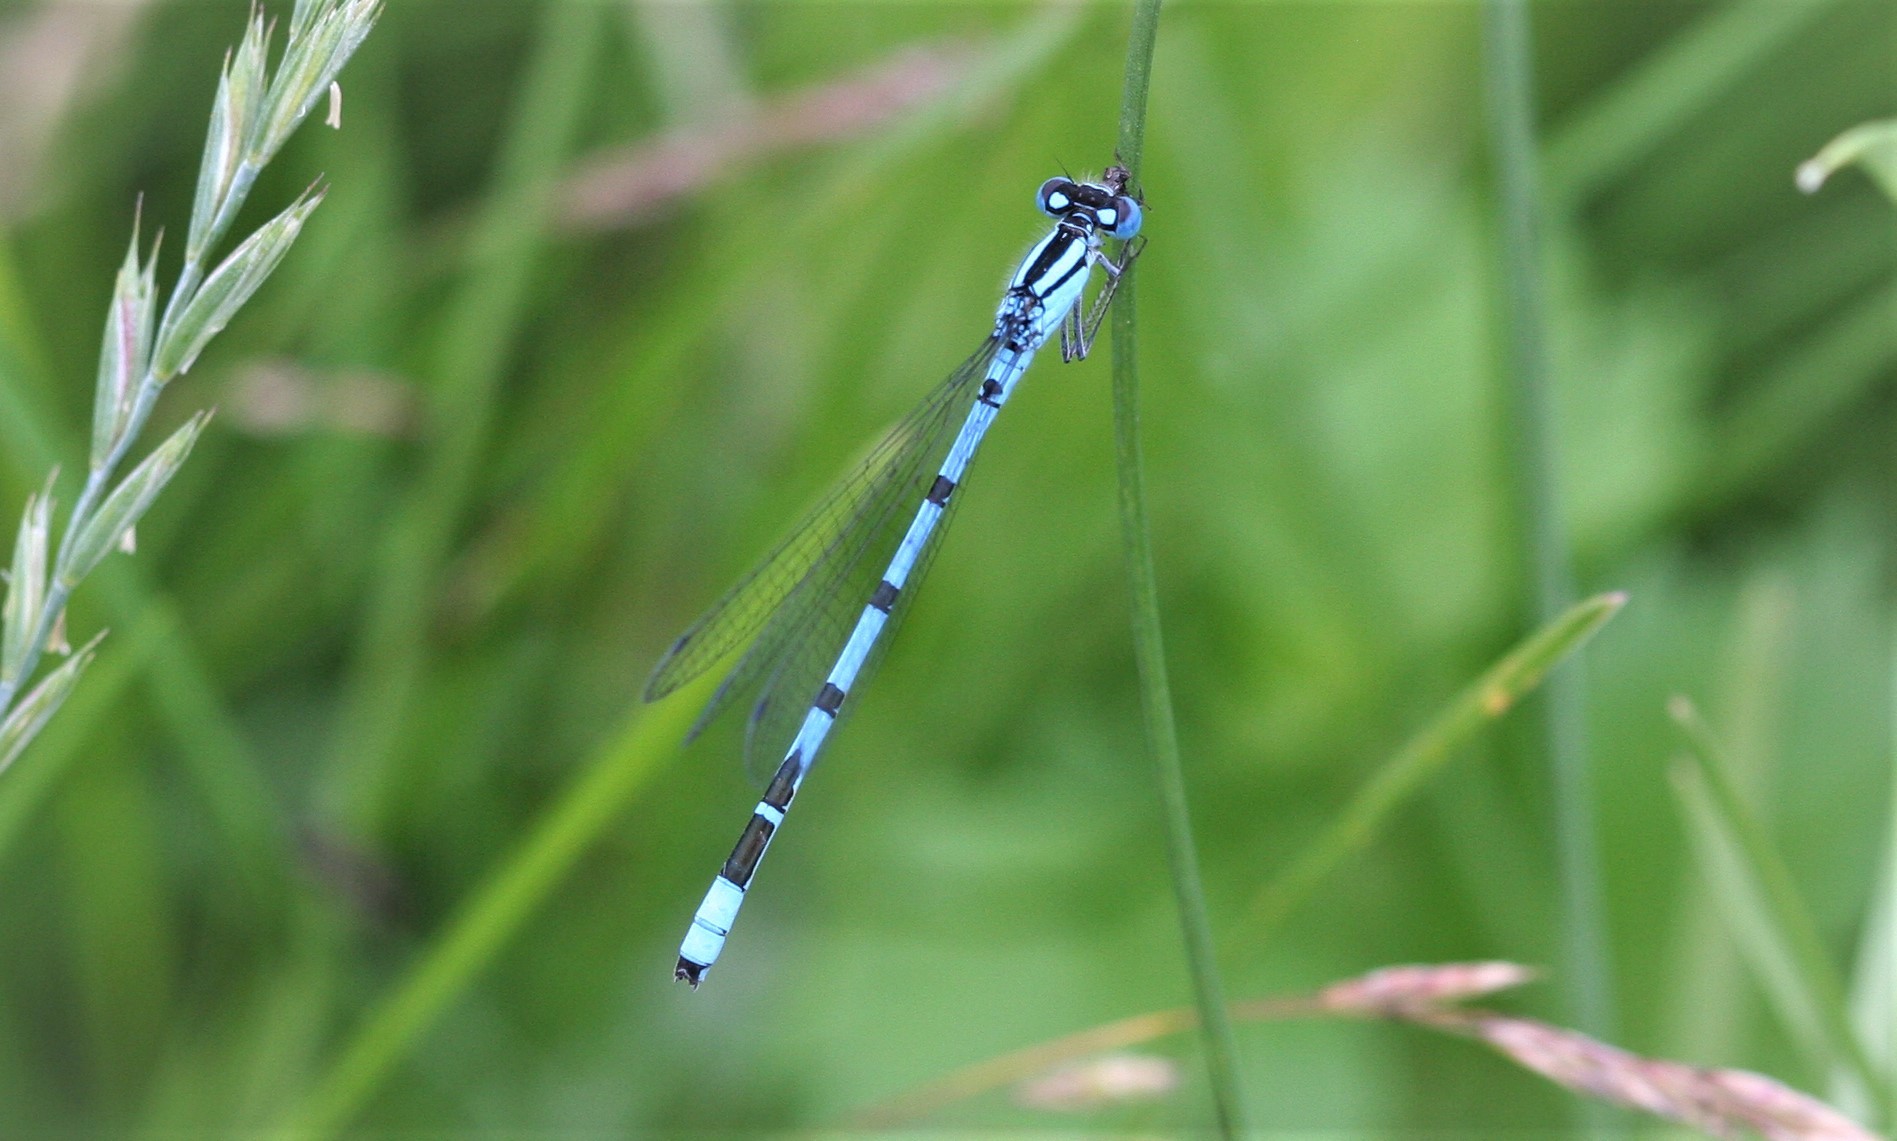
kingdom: Animalia
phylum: Arthropoda
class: Insecta
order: Odonata
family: Coenagrionidae
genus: Enallagma
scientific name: Enallagma cyathigerum
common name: Common blue damselfly
